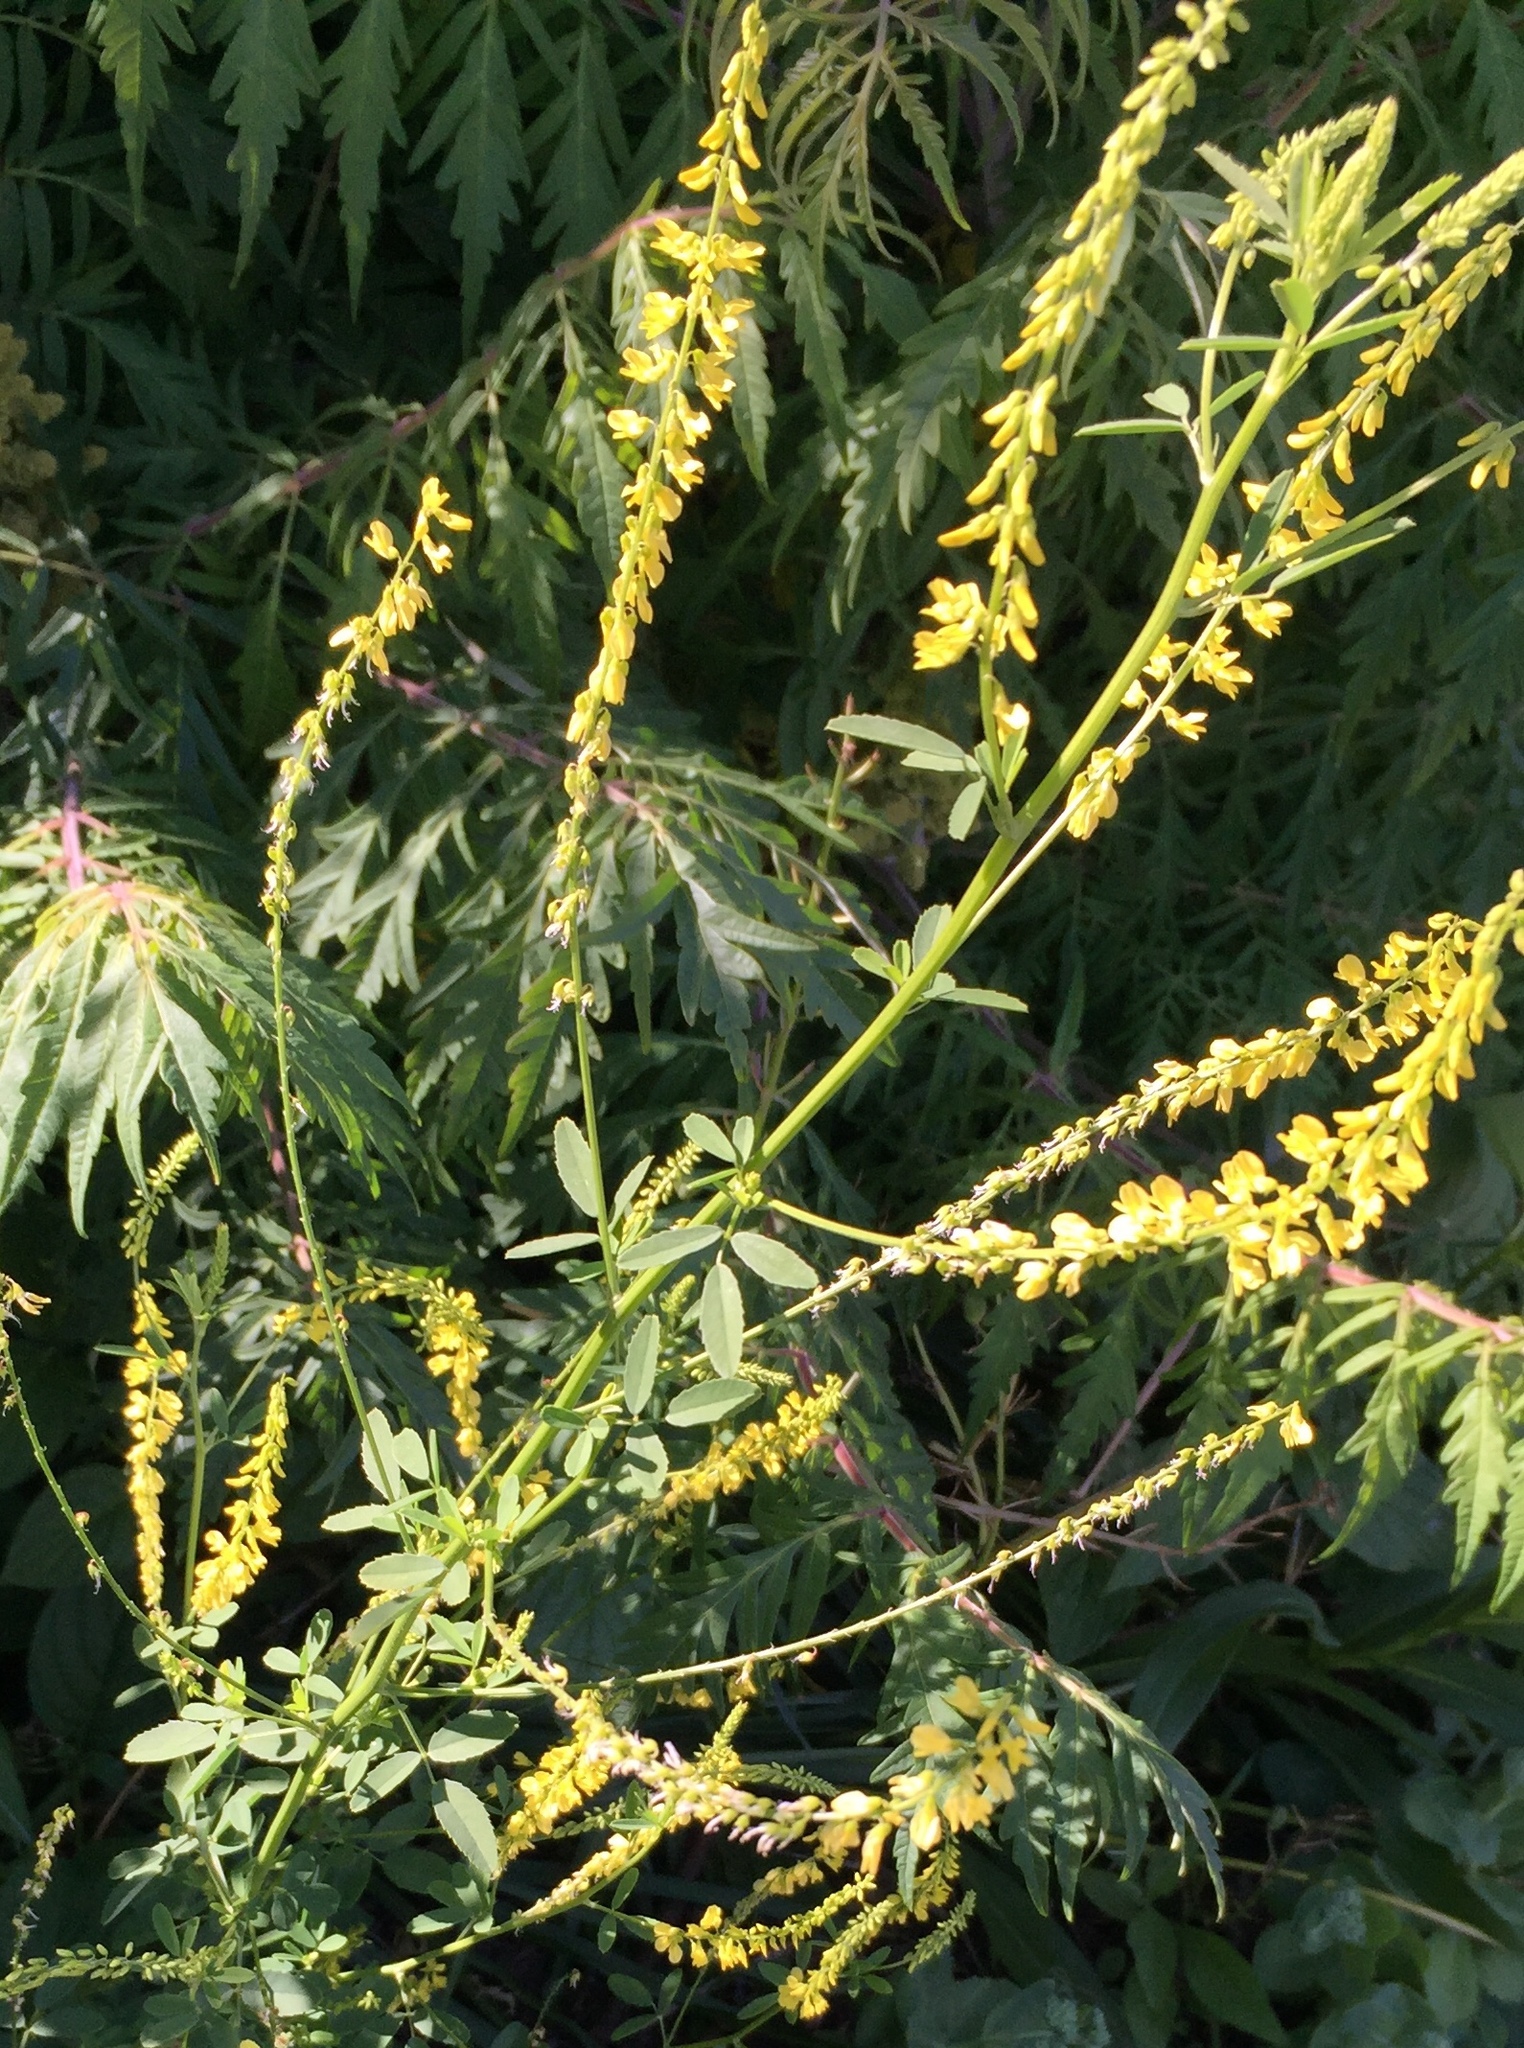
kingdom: Plantae
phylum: Tracheophyta
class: Magnoliopsida
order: Fabales
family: Fabaceae
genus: Melilotus
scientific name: Melilotus officinalis
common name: Sweetclover
